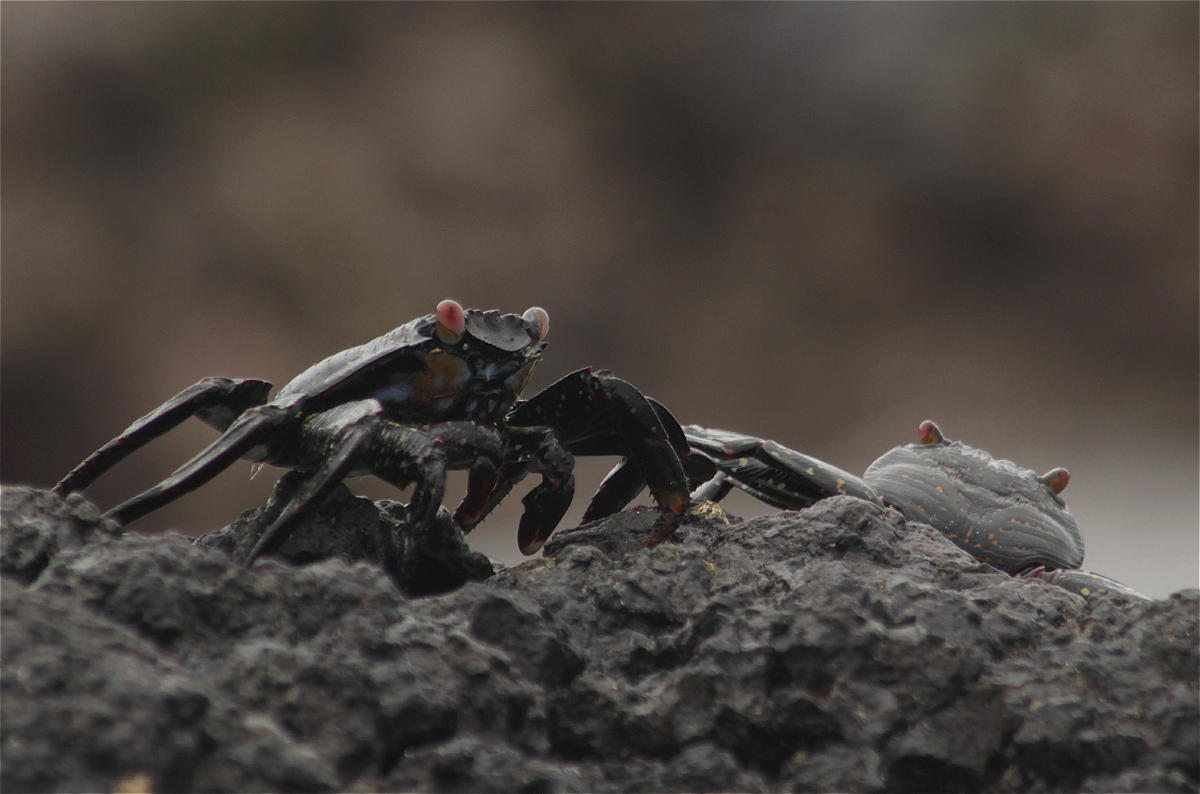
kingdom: Animalia
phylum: Arthropoda
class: Malacostraca
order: Decapoda
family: Grapsidae
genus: Grapsus
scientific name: Grapsus grapsus
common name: Sally lightfoot
